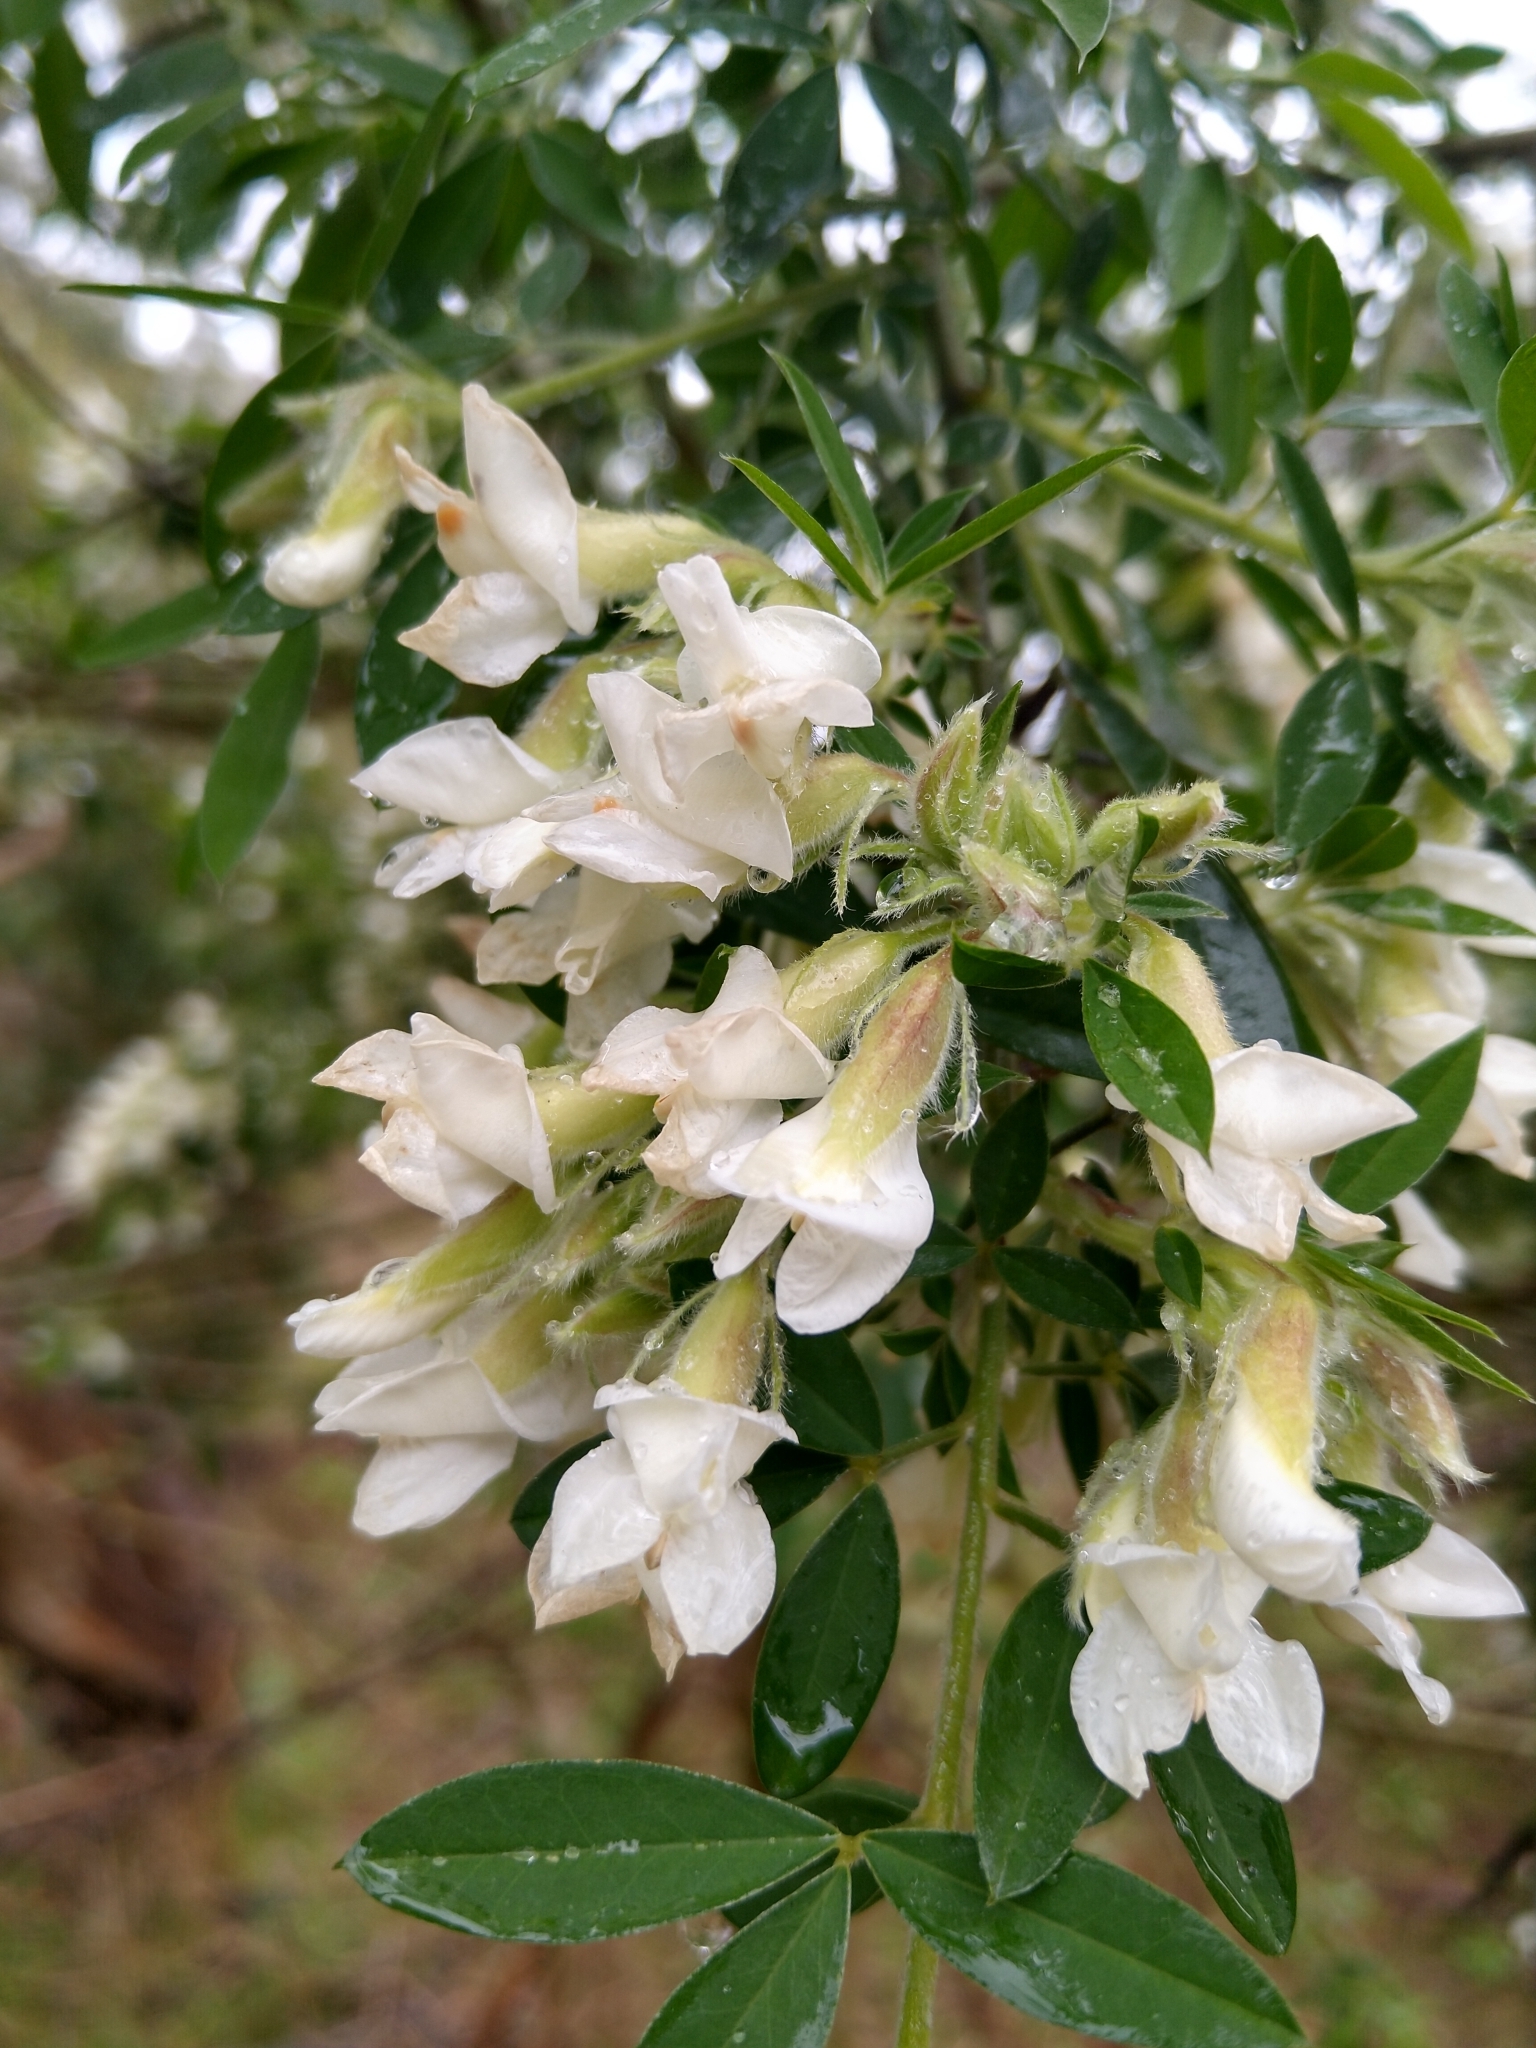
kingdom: Plantae
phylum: Tracheophyta
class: Magnoliopsida
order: Fabales
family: Fabaceae
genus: Chamaecytisus
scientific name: Chamaecytisus prolifer
